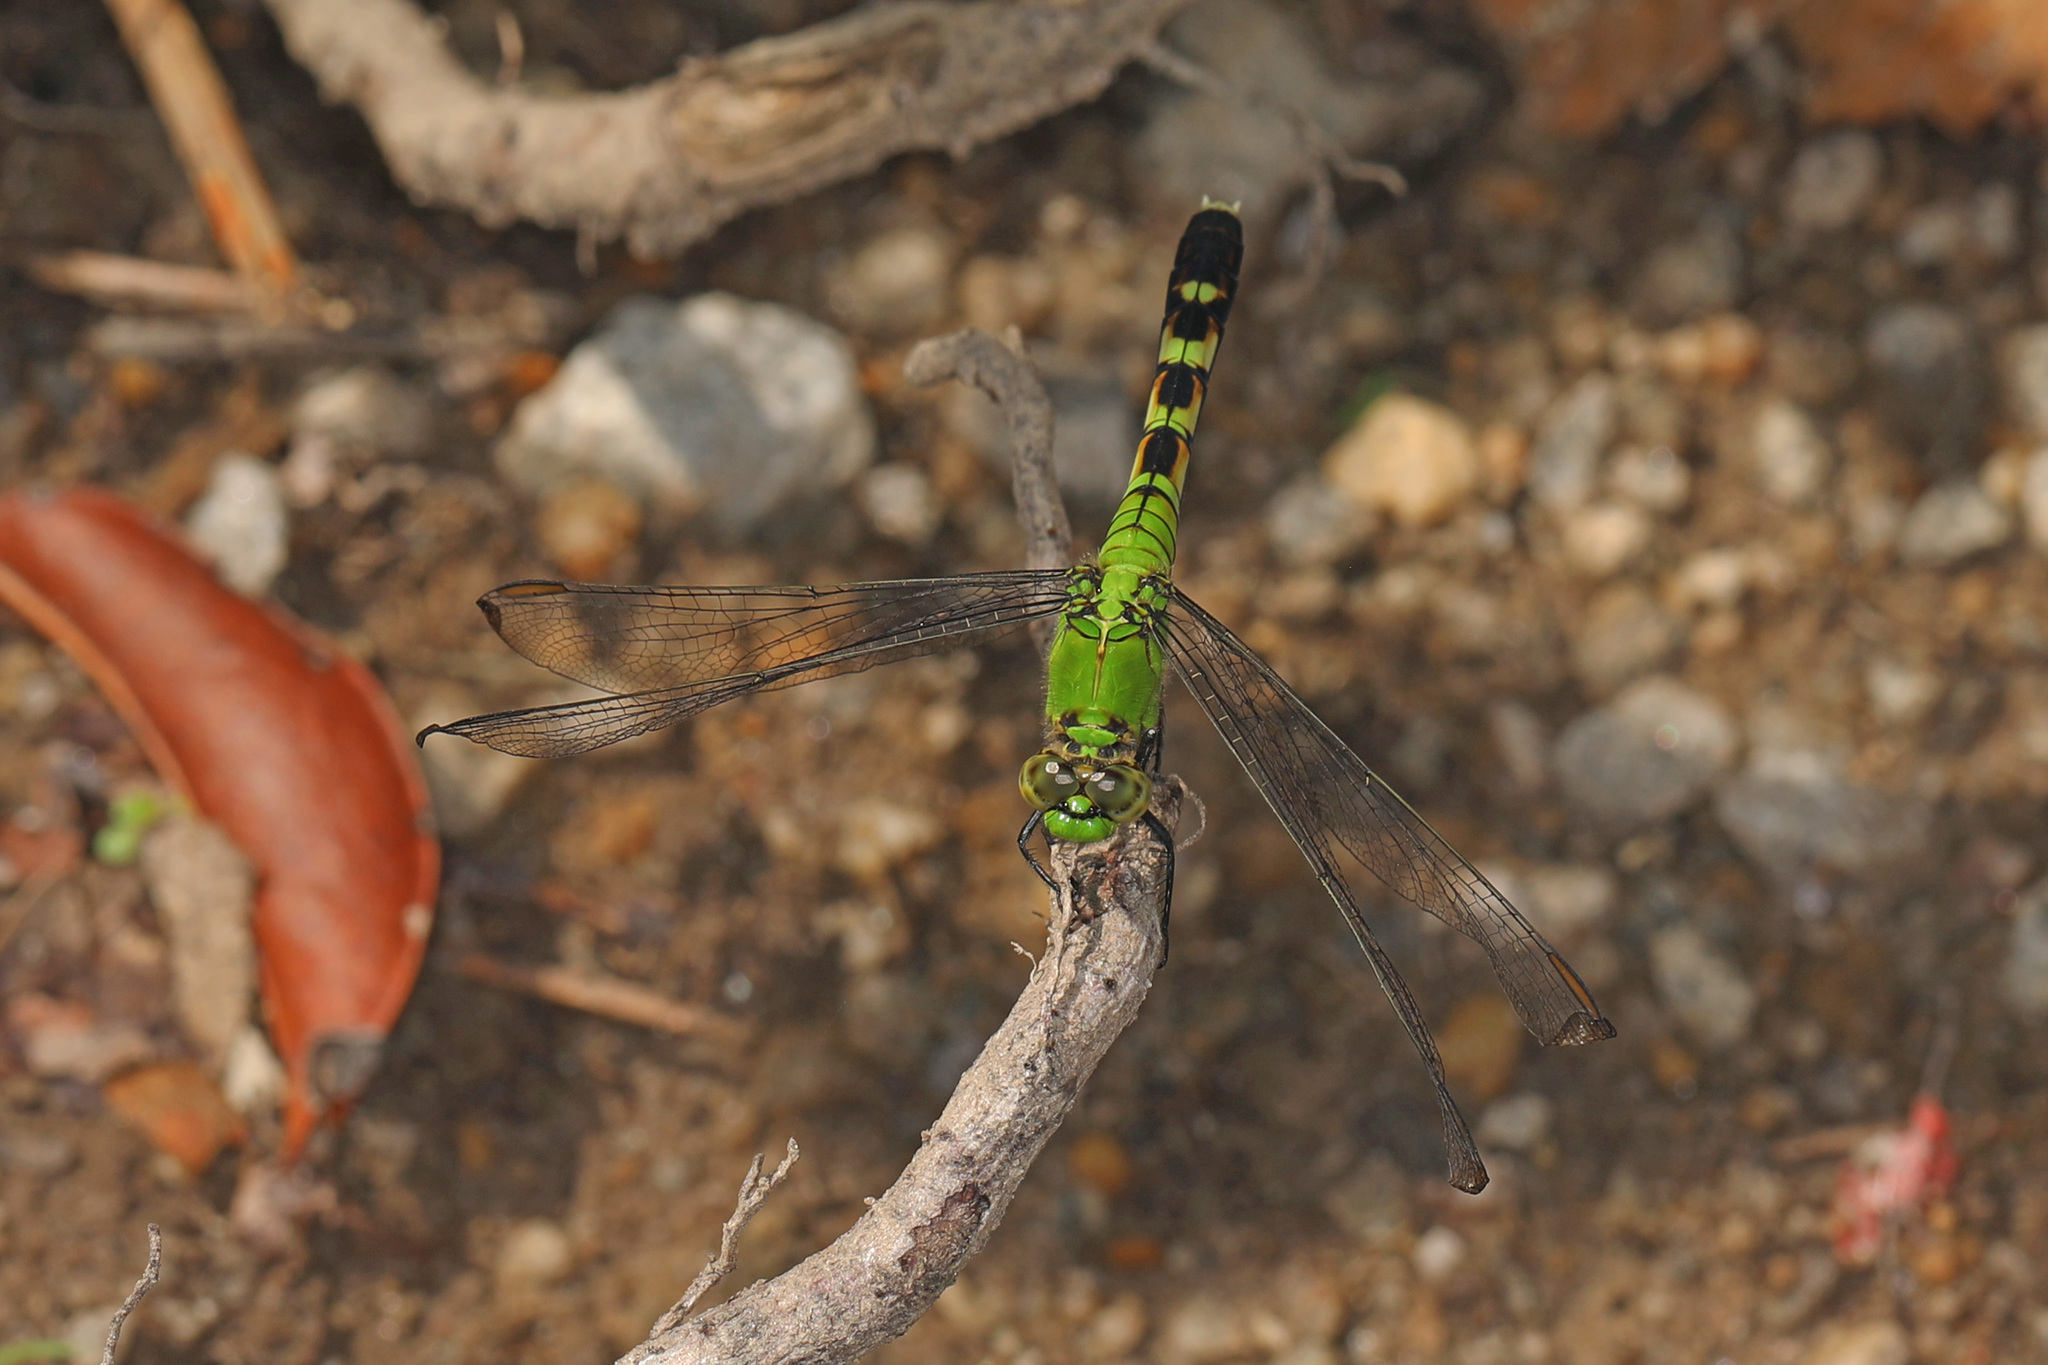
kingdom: Animalia
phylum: Arthropoda
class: Insecta
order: Odonata
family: Libellulidae
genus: Erythemis
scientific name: Erythemis simplicicollis
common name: Eastern pondhawk
